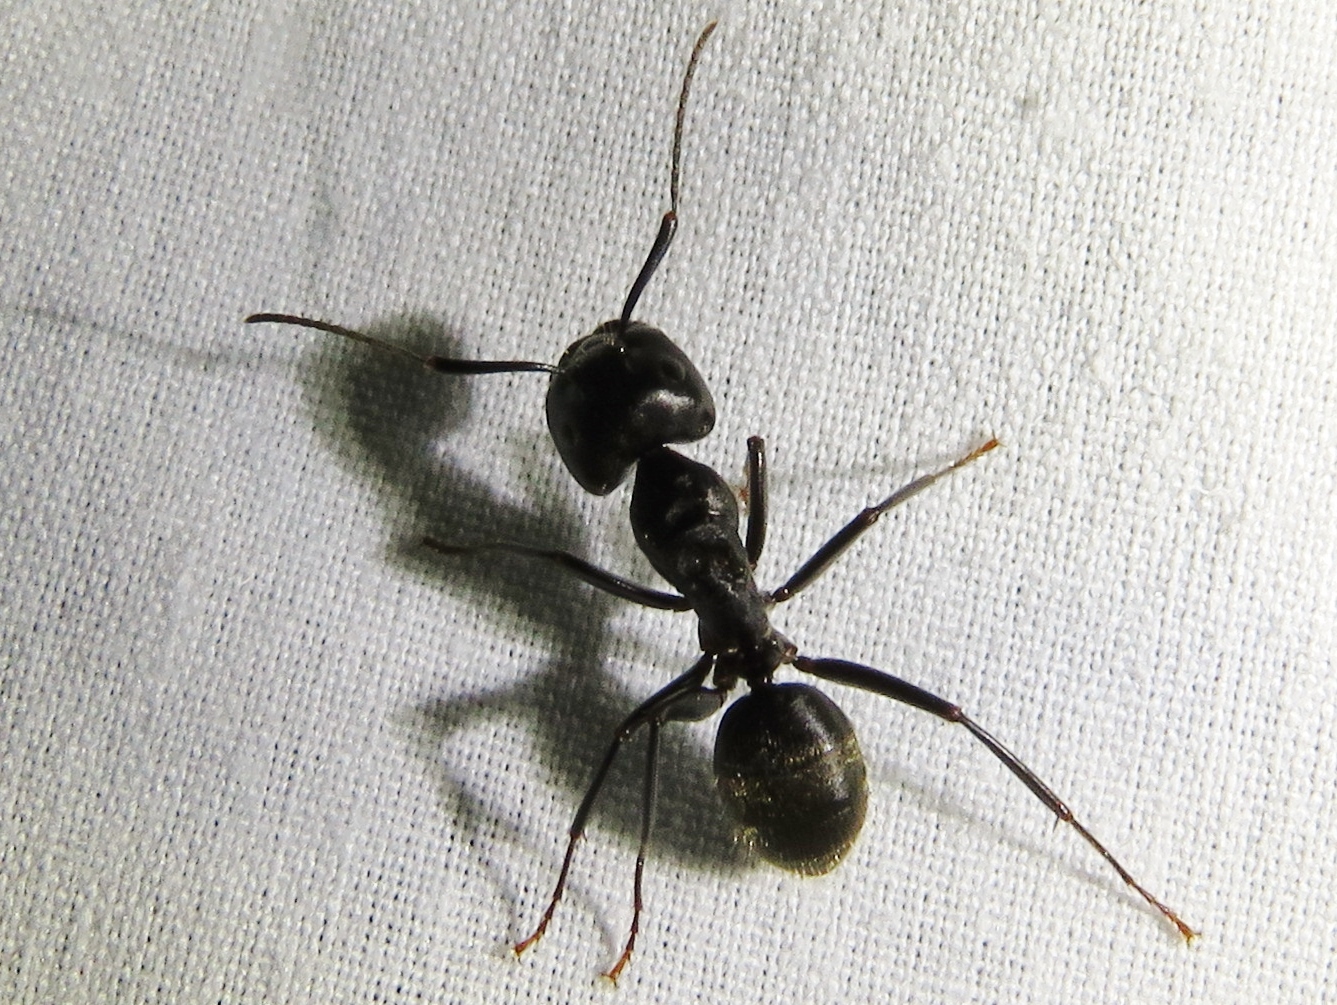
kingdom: Animalia
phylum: Arthropoda
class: Insecta
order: Hymenoptera
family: Formicidae
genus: Camponotus
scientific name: Camponotus pennsylvanicus
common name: Black carpenter ant
